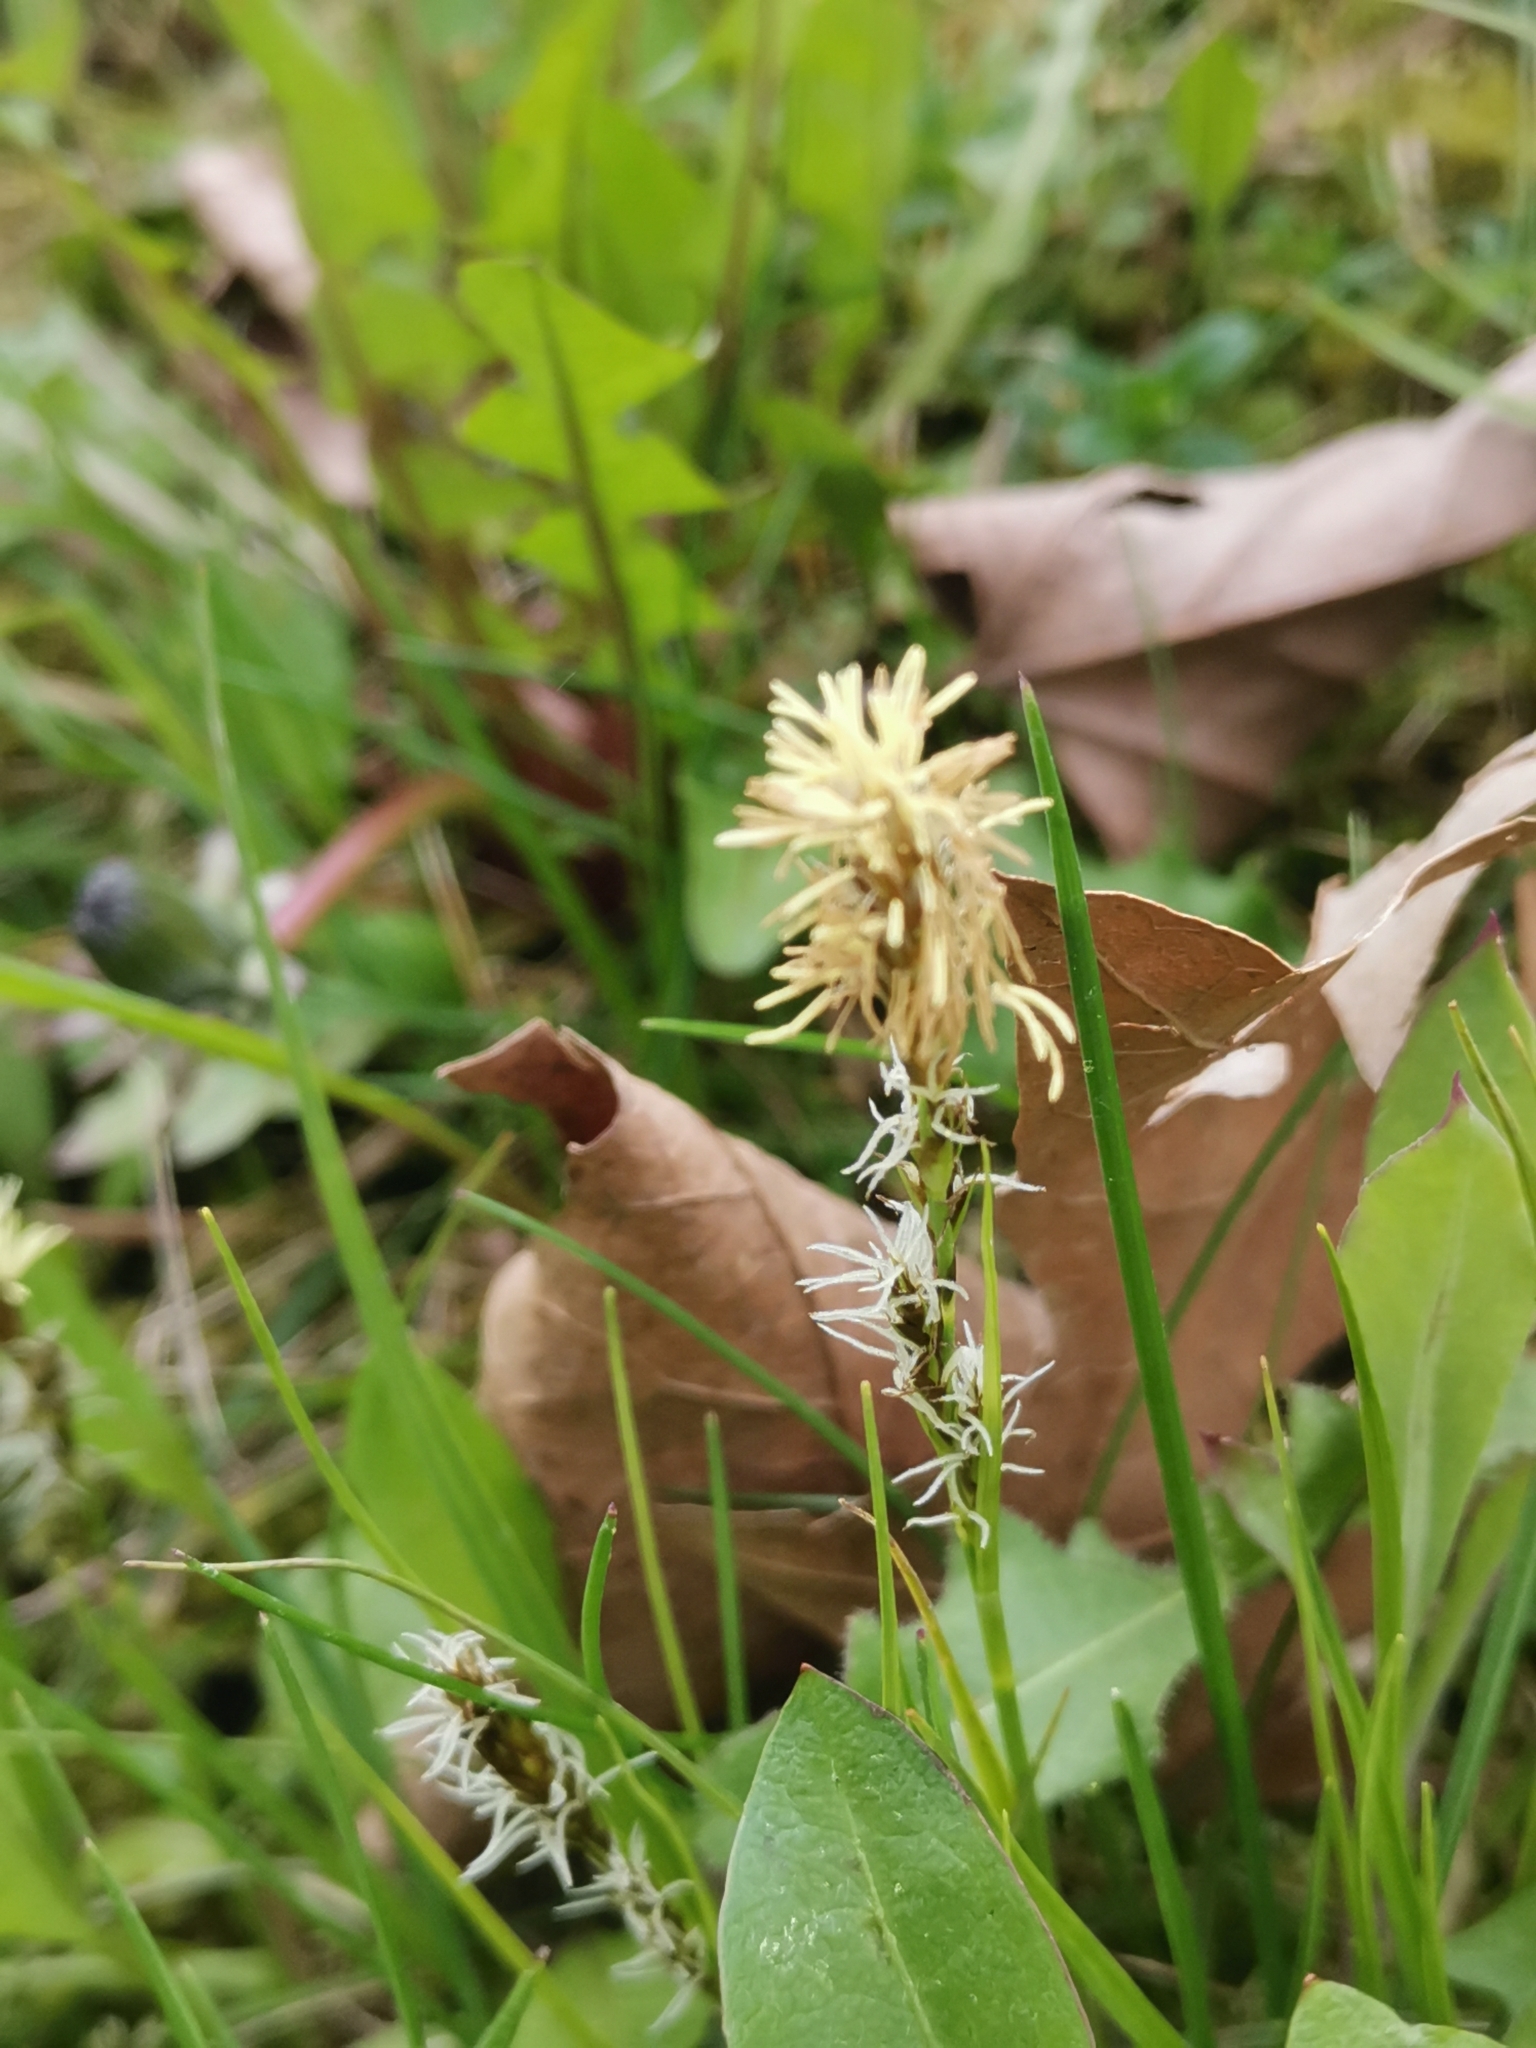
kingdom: Plantae
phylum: Tracheophyta
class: Liliopsida
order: Poales
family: Cyperaceae
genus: Carex
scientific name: Carex caryophyllea
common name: Spring sedge
